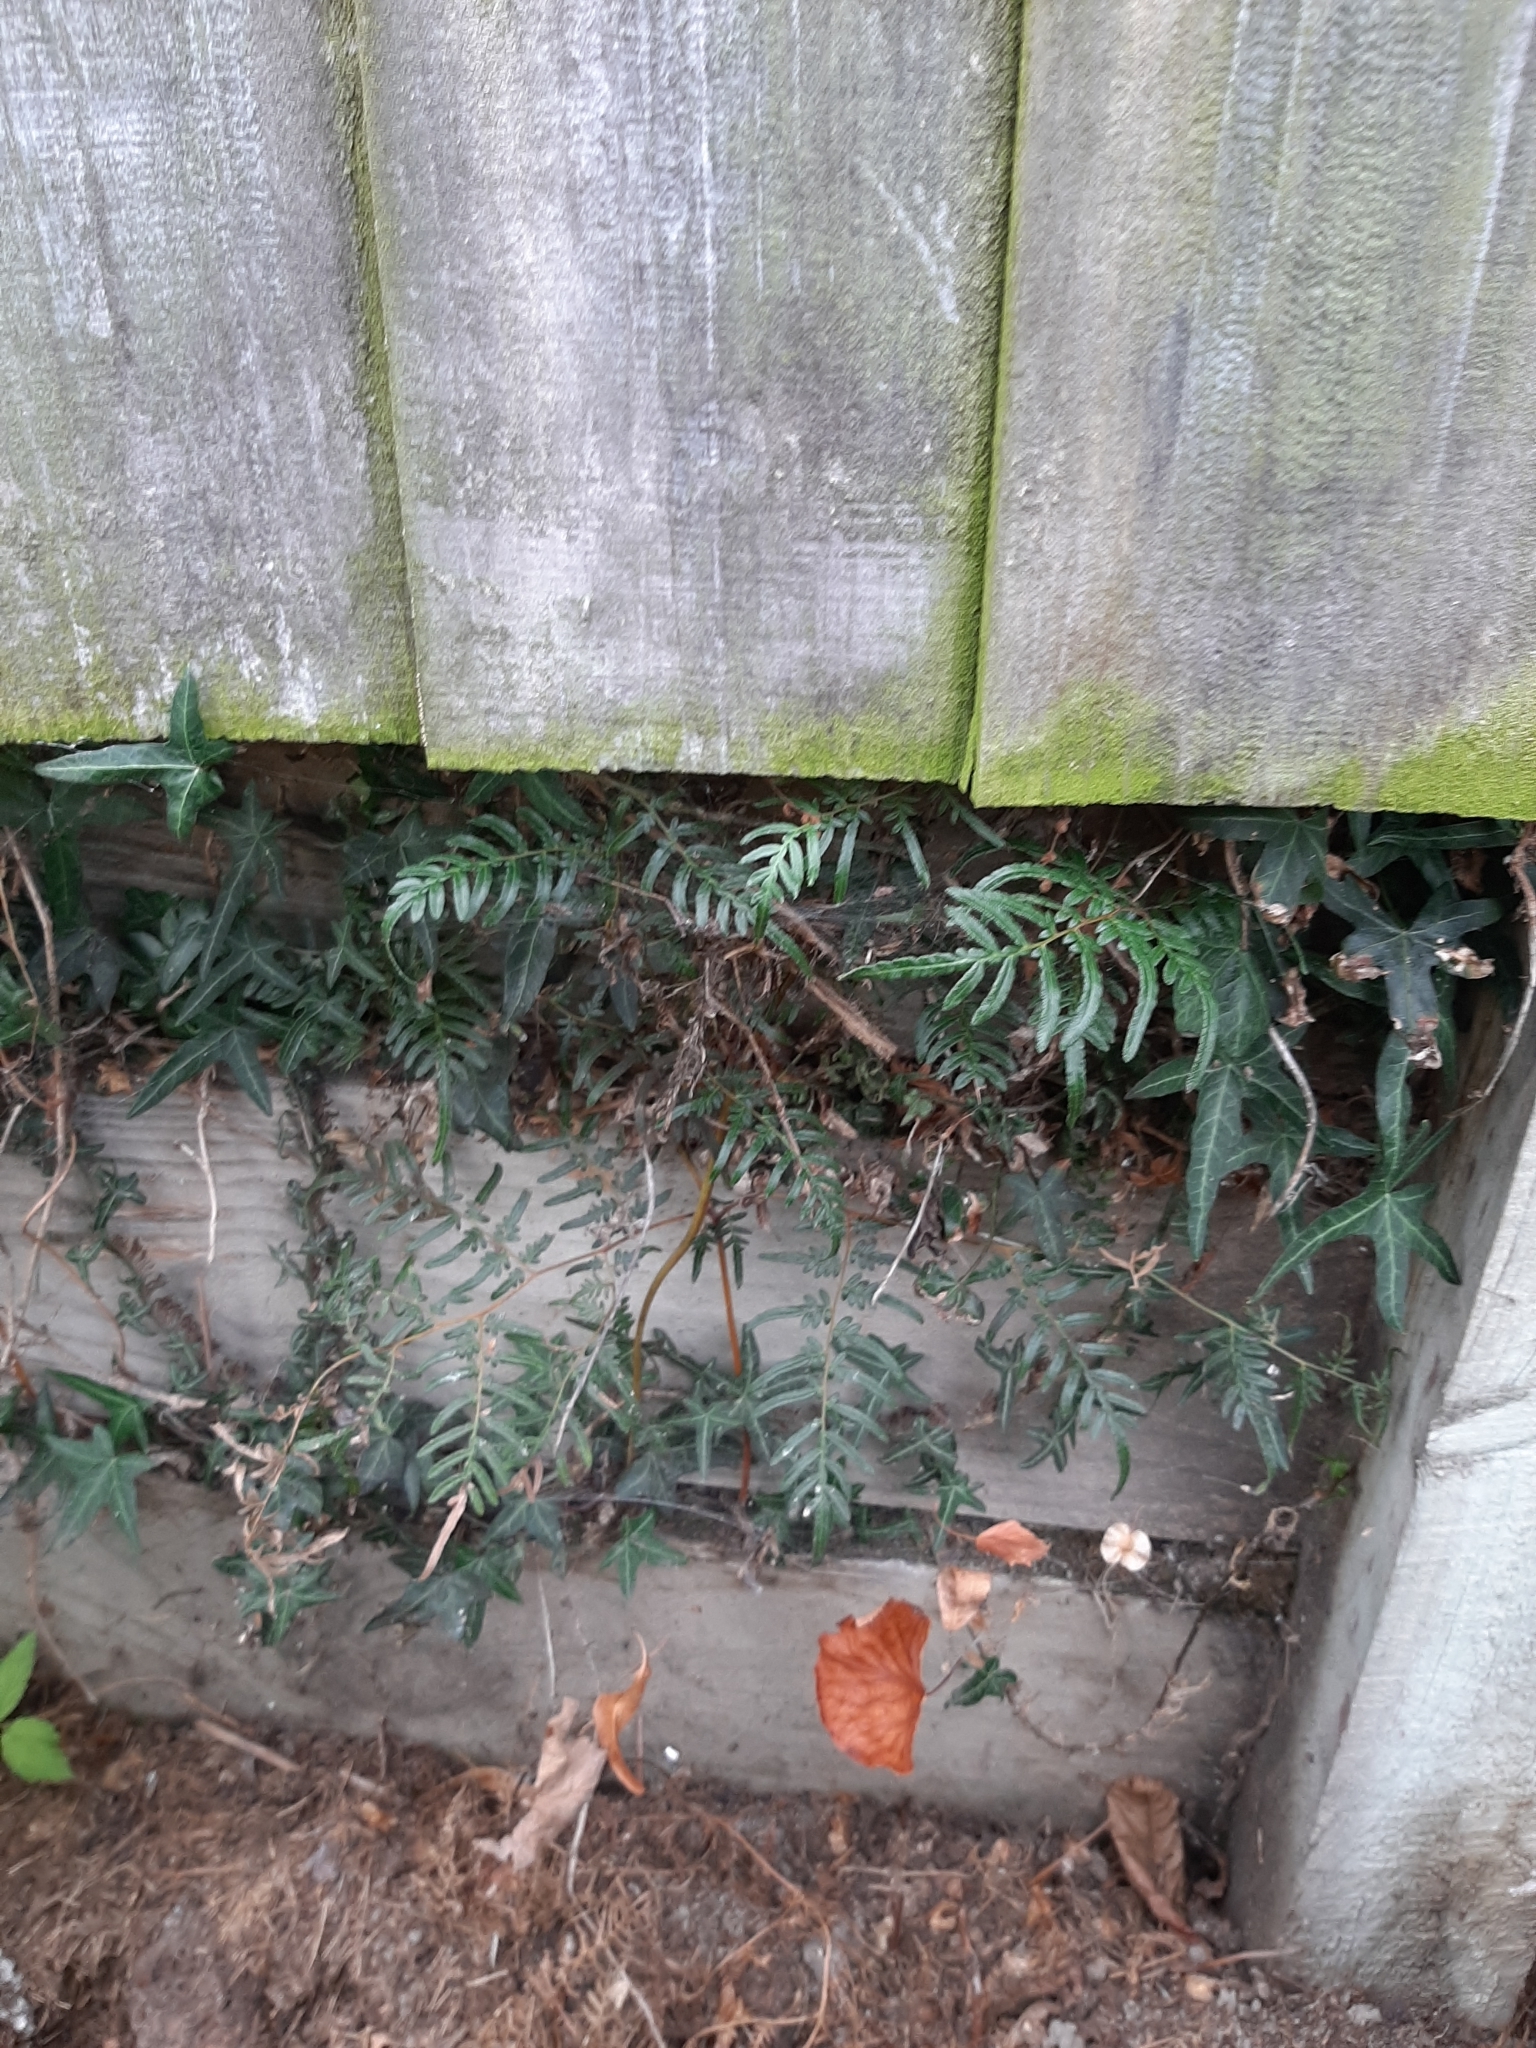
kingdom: Plantae
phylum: Tracheophyta
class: Polypodiopsida
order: Polypodiales
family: Dennstaedtiaceae
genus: Pteridium
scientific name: Pteridium esculentum
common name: Bracken fern
